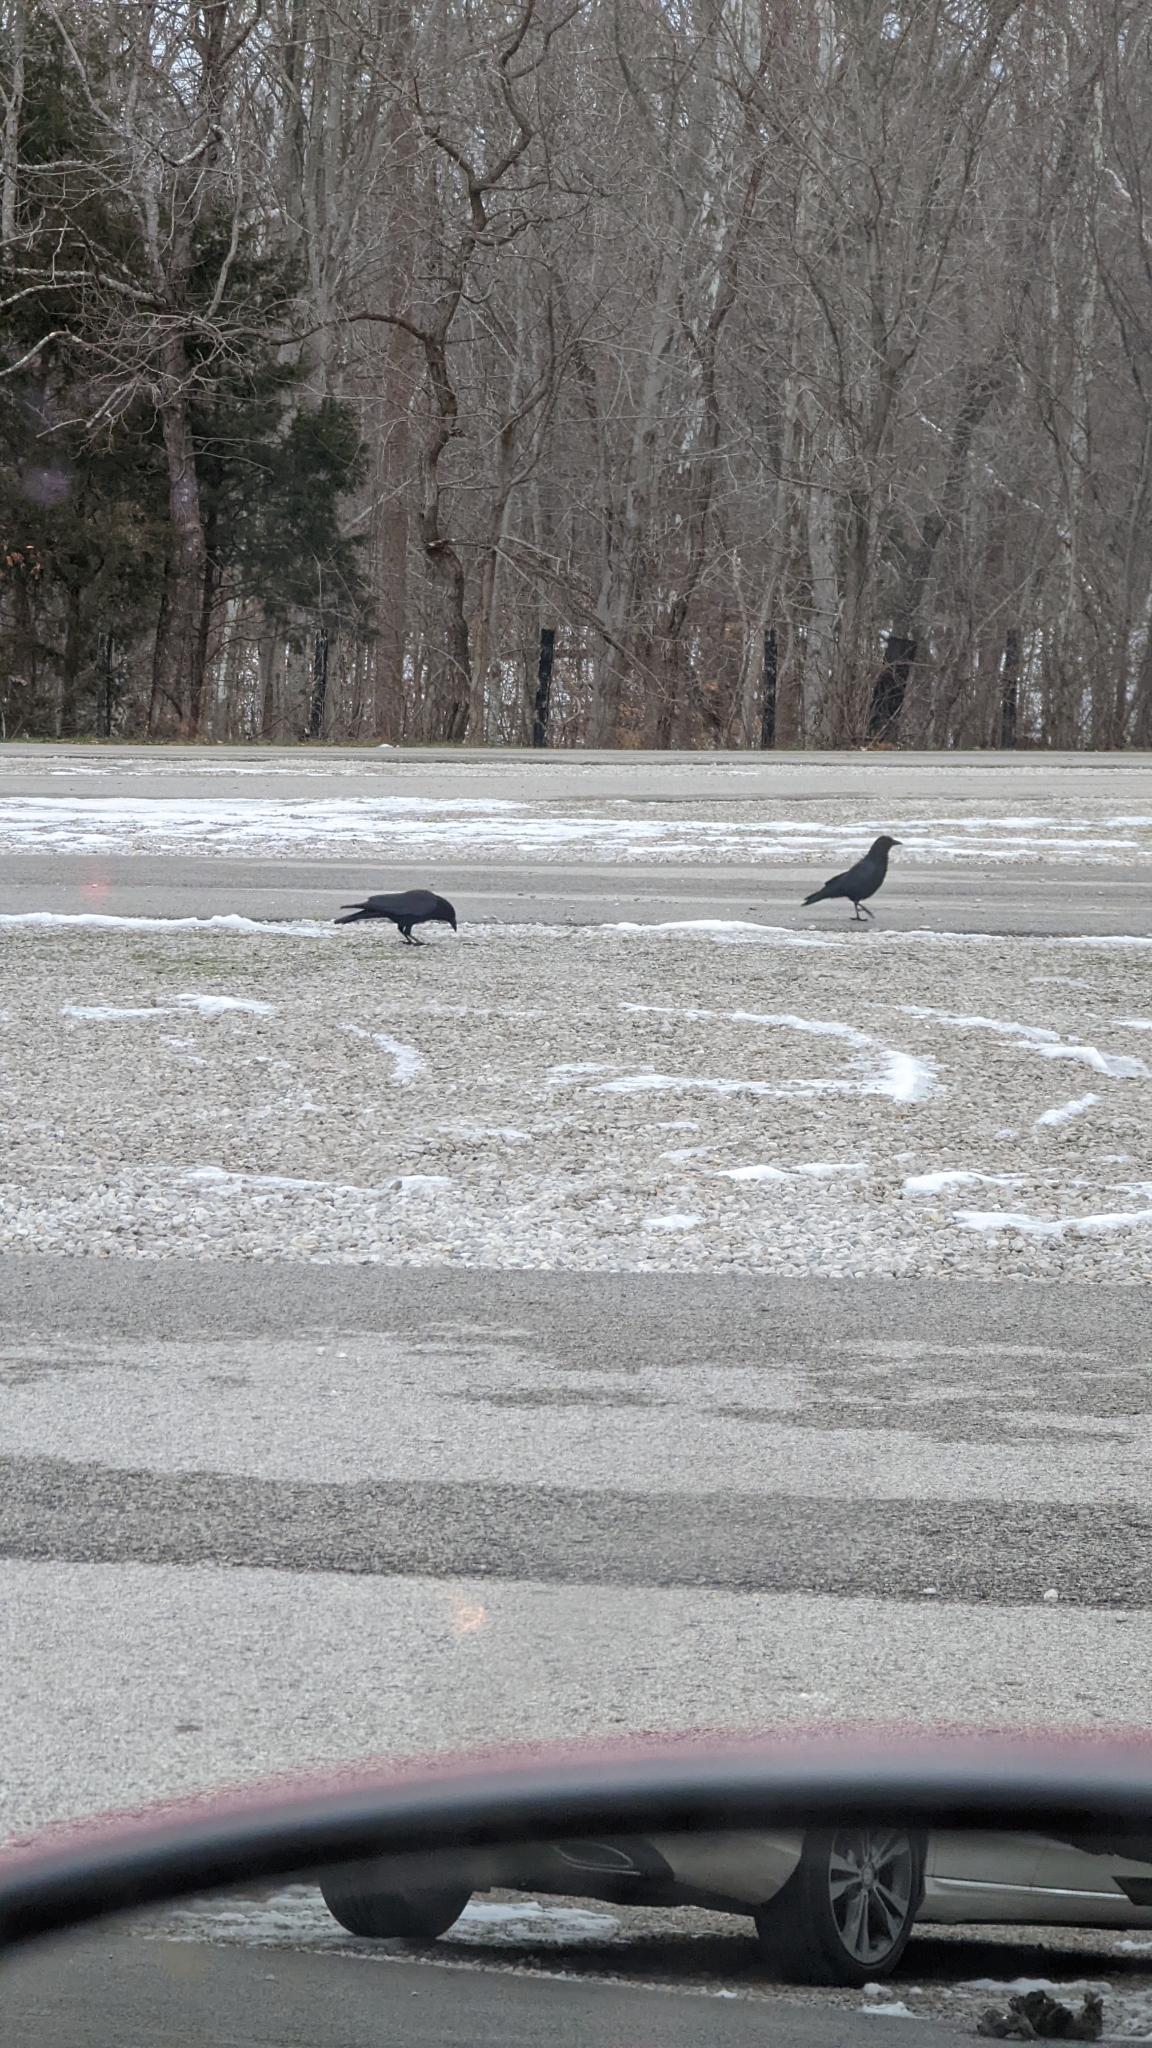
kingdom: Animalia
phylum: Chordata
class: Aves
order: Passeriformes
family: Corvidae
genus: Corvus
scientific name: Corvus brachyrhynchos
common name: American crow
